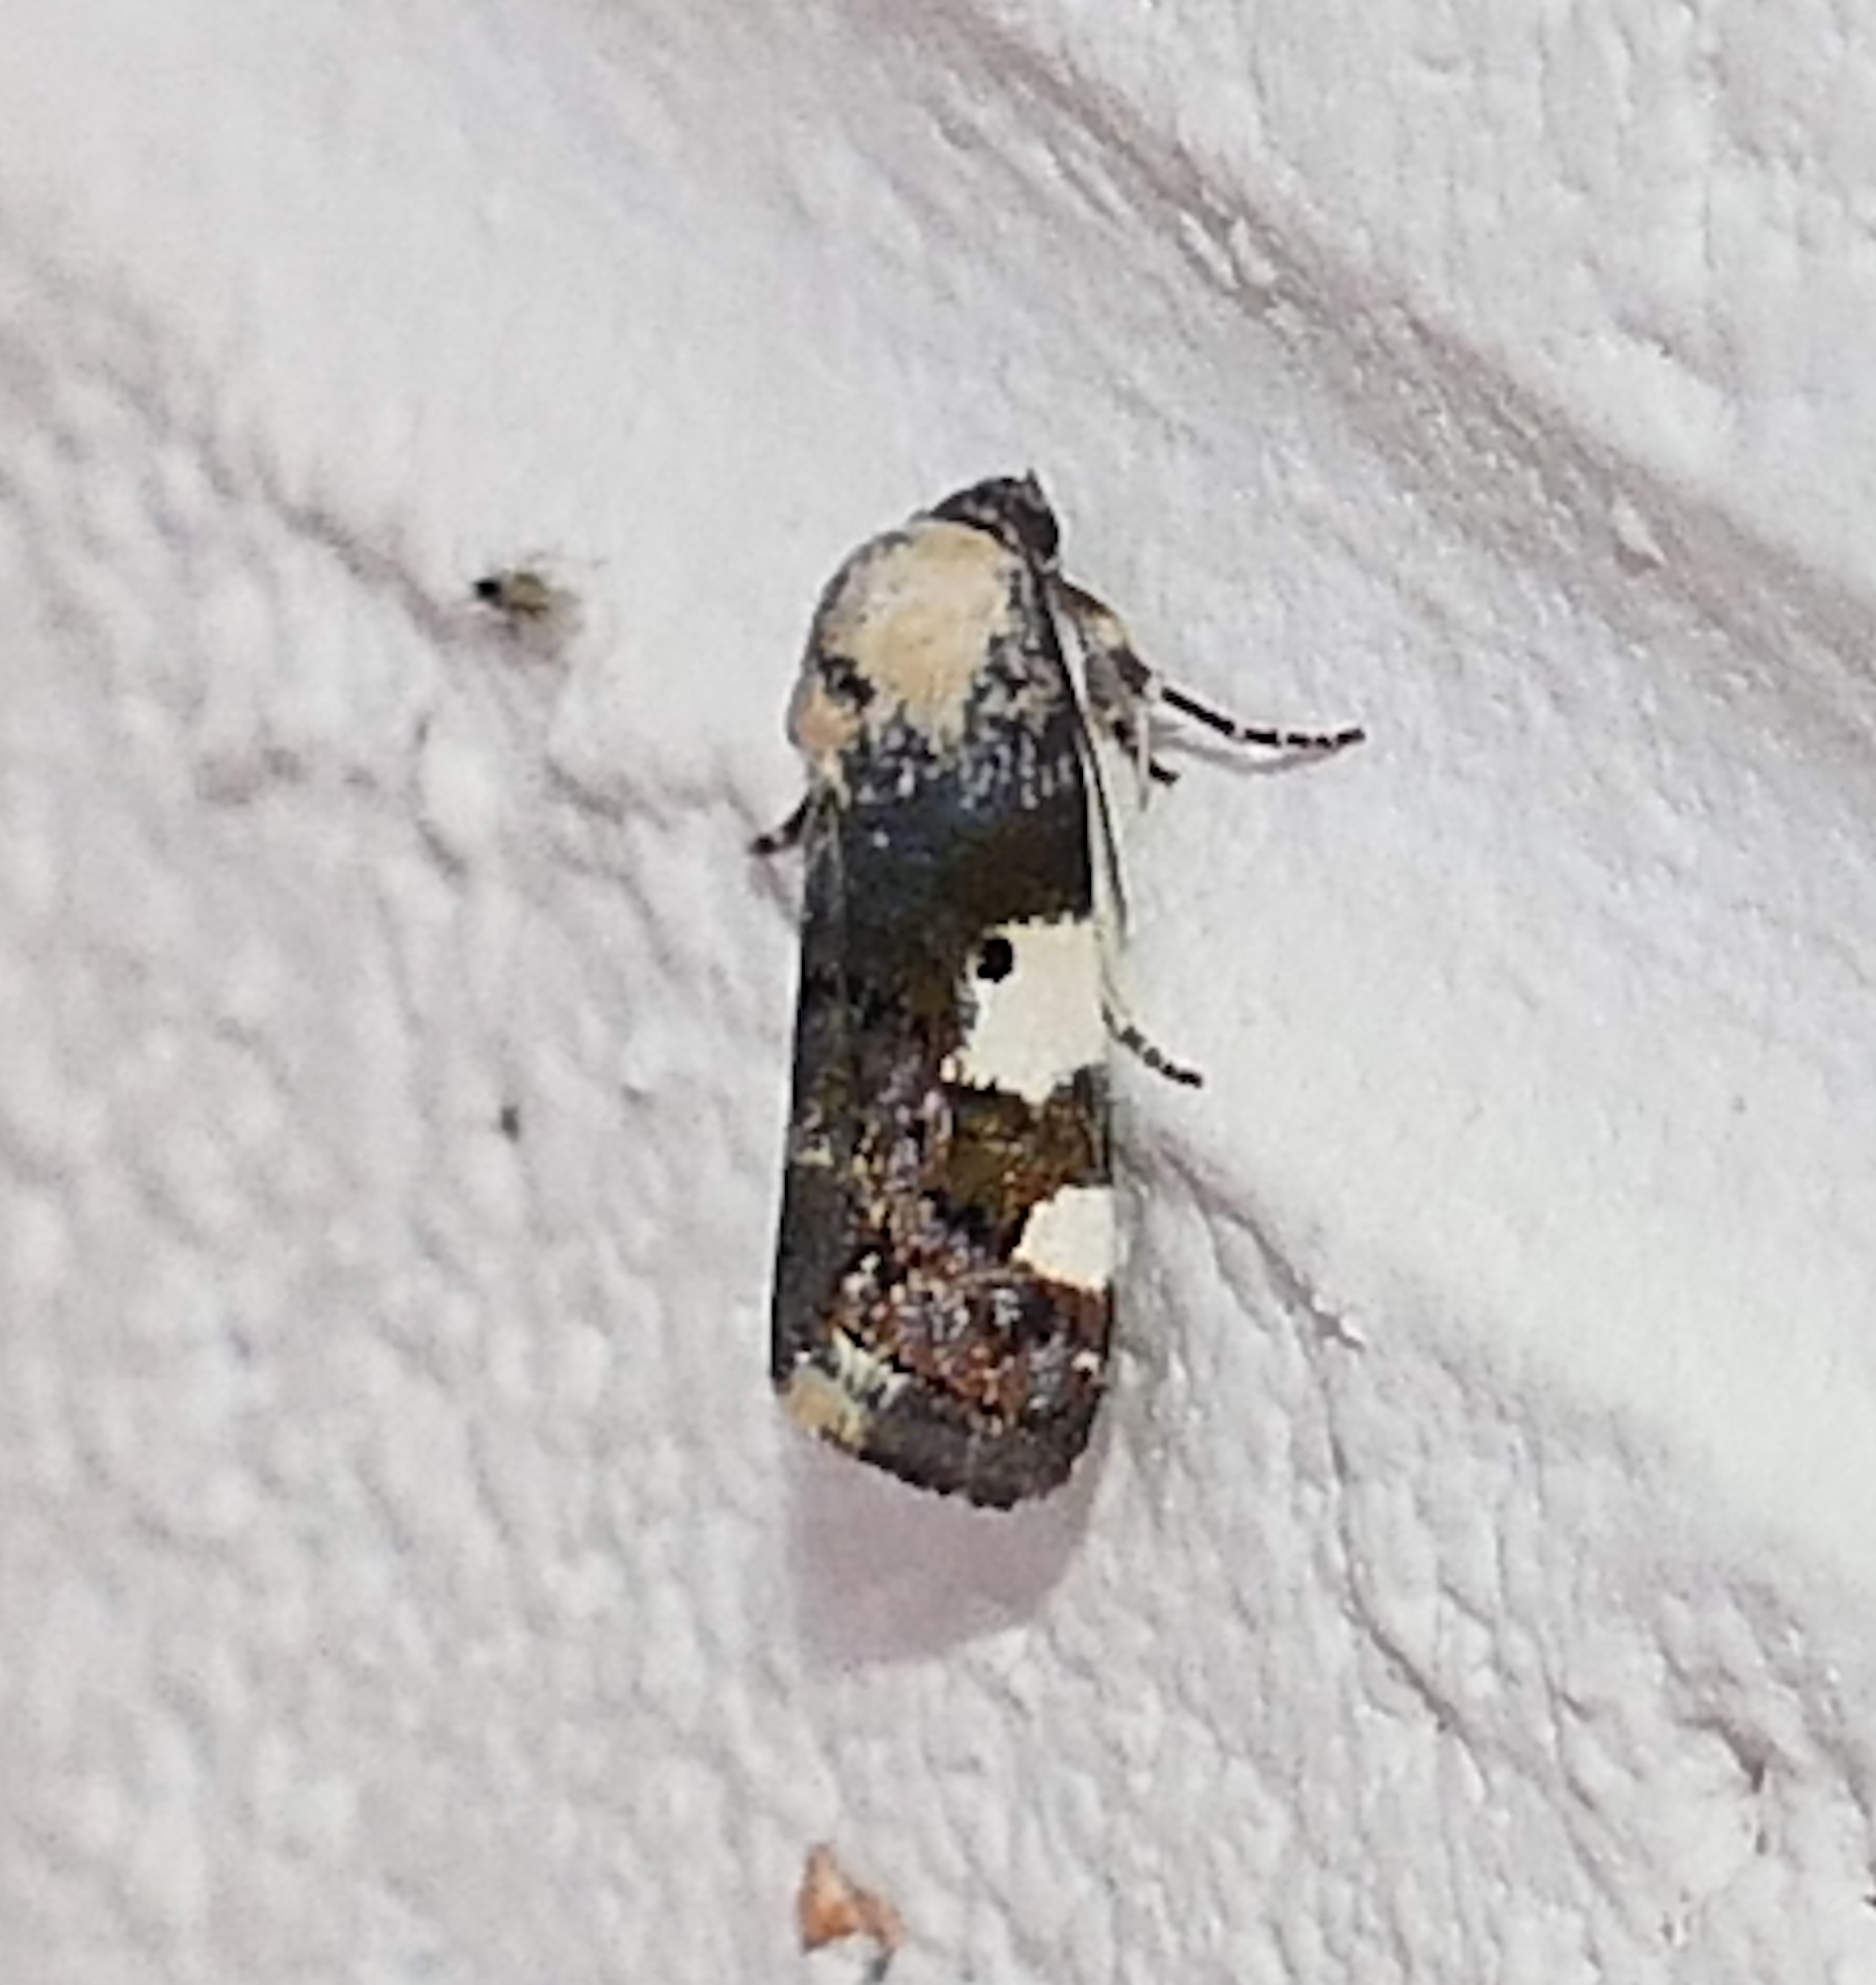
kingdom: Animalia
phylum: Arthropoda
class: Insecta
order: Lepidoptera
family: Noctuidae
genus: Acontia
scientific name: Acontia aprica
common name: Nun
